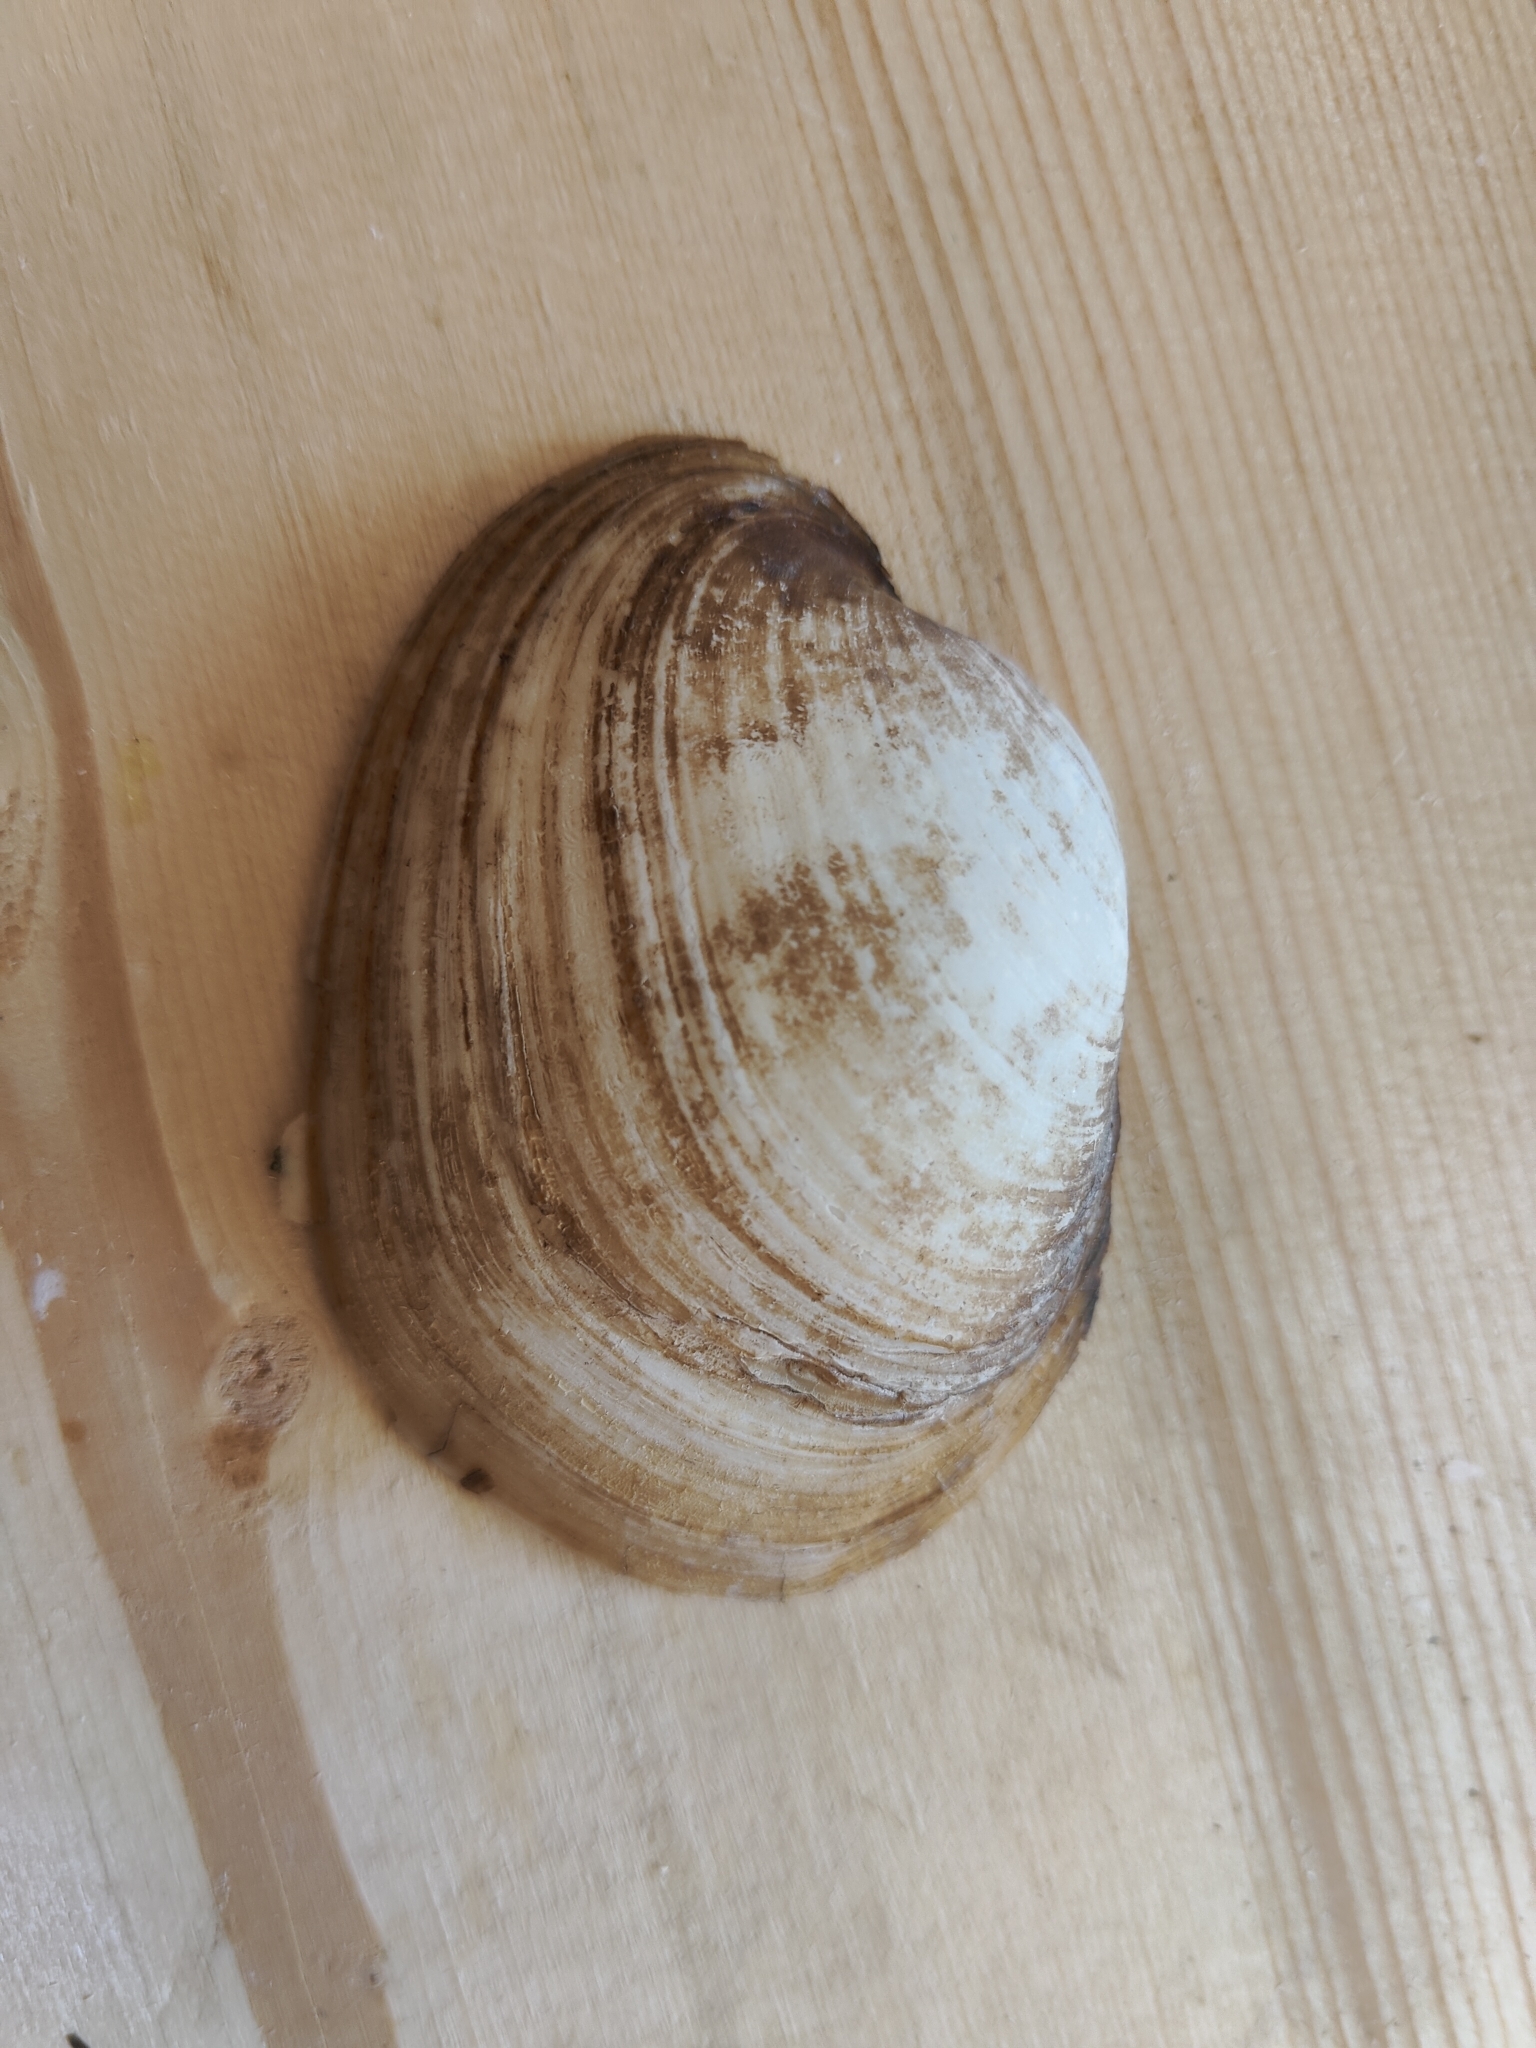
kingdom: Animalia
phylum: Mollusca
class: Bivalvia
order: Unionida
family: Unionidae
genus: Lampsilis
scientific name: Lampsilis cardium
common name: Plain pocketbook
